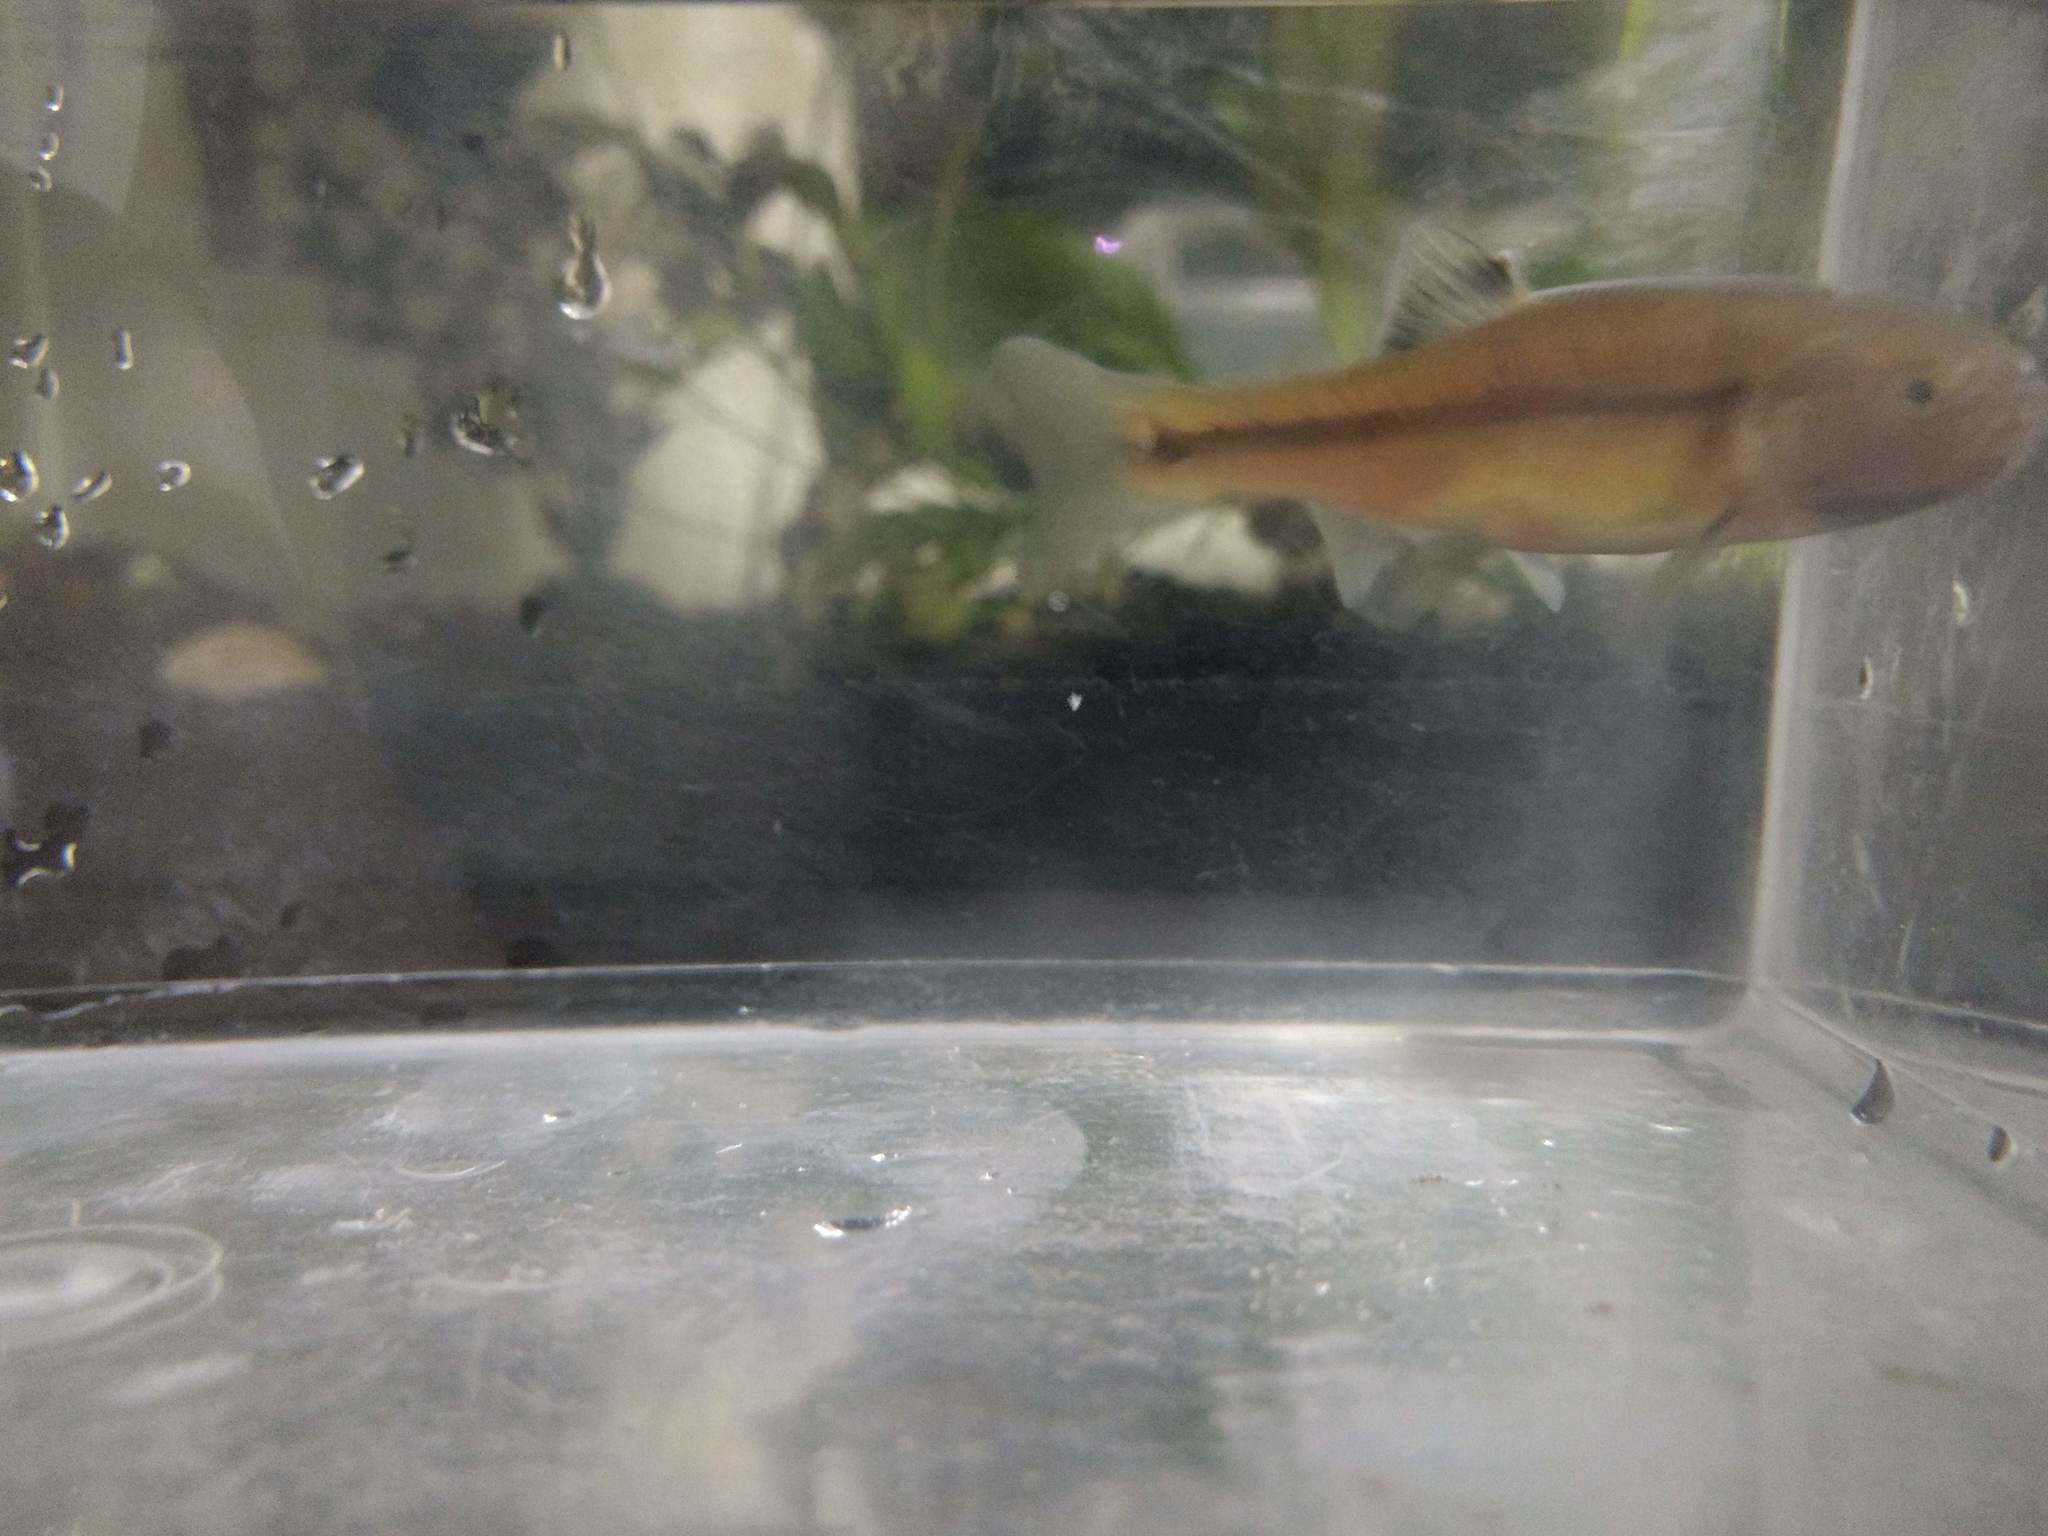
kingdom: Animalia
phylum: Chordata
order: Cypriniformes
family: Cyprinidae
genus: Pimephales
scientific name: Pimephales promelas
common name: Fathead minnow
